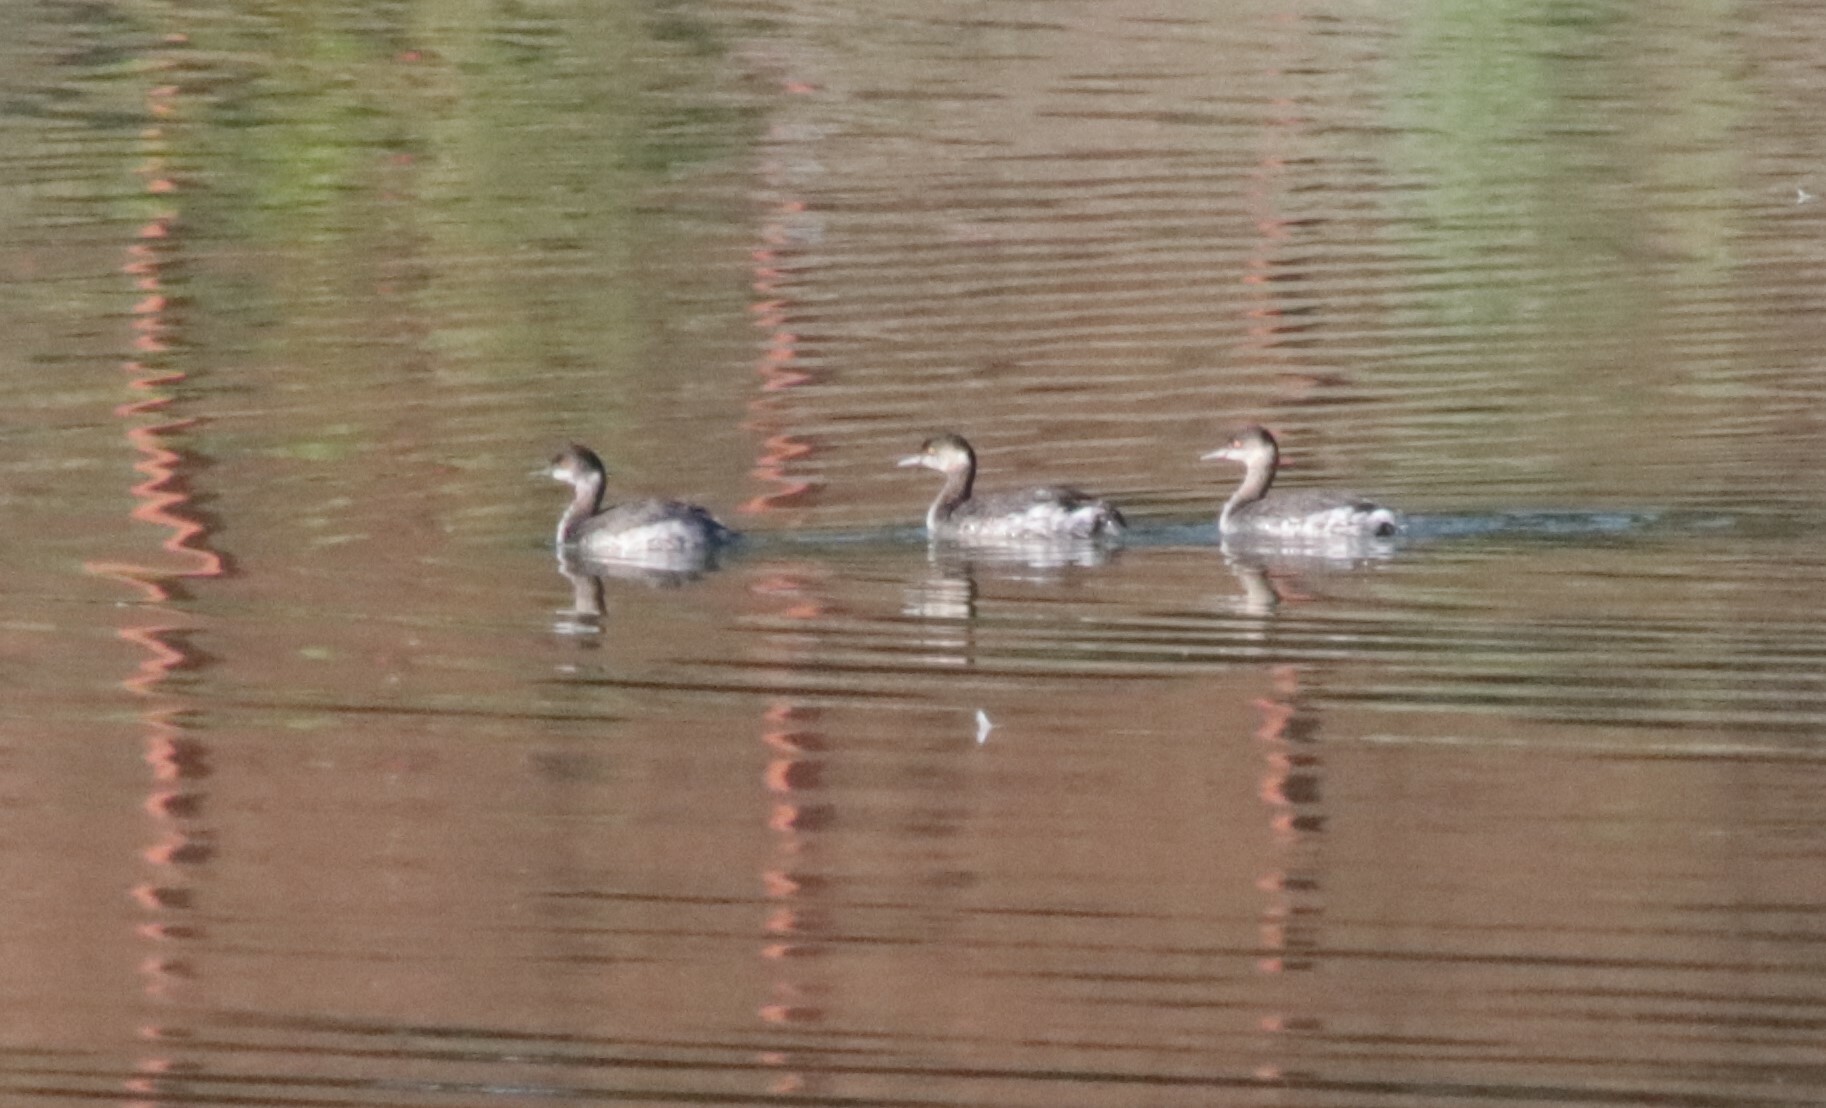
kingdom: Animalia
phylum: Chordata
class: Aves
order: Podicipediformes
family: Podicipedidae
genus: Podiceps
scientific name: Podiceps nigricollis
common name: Black-necked grebe
